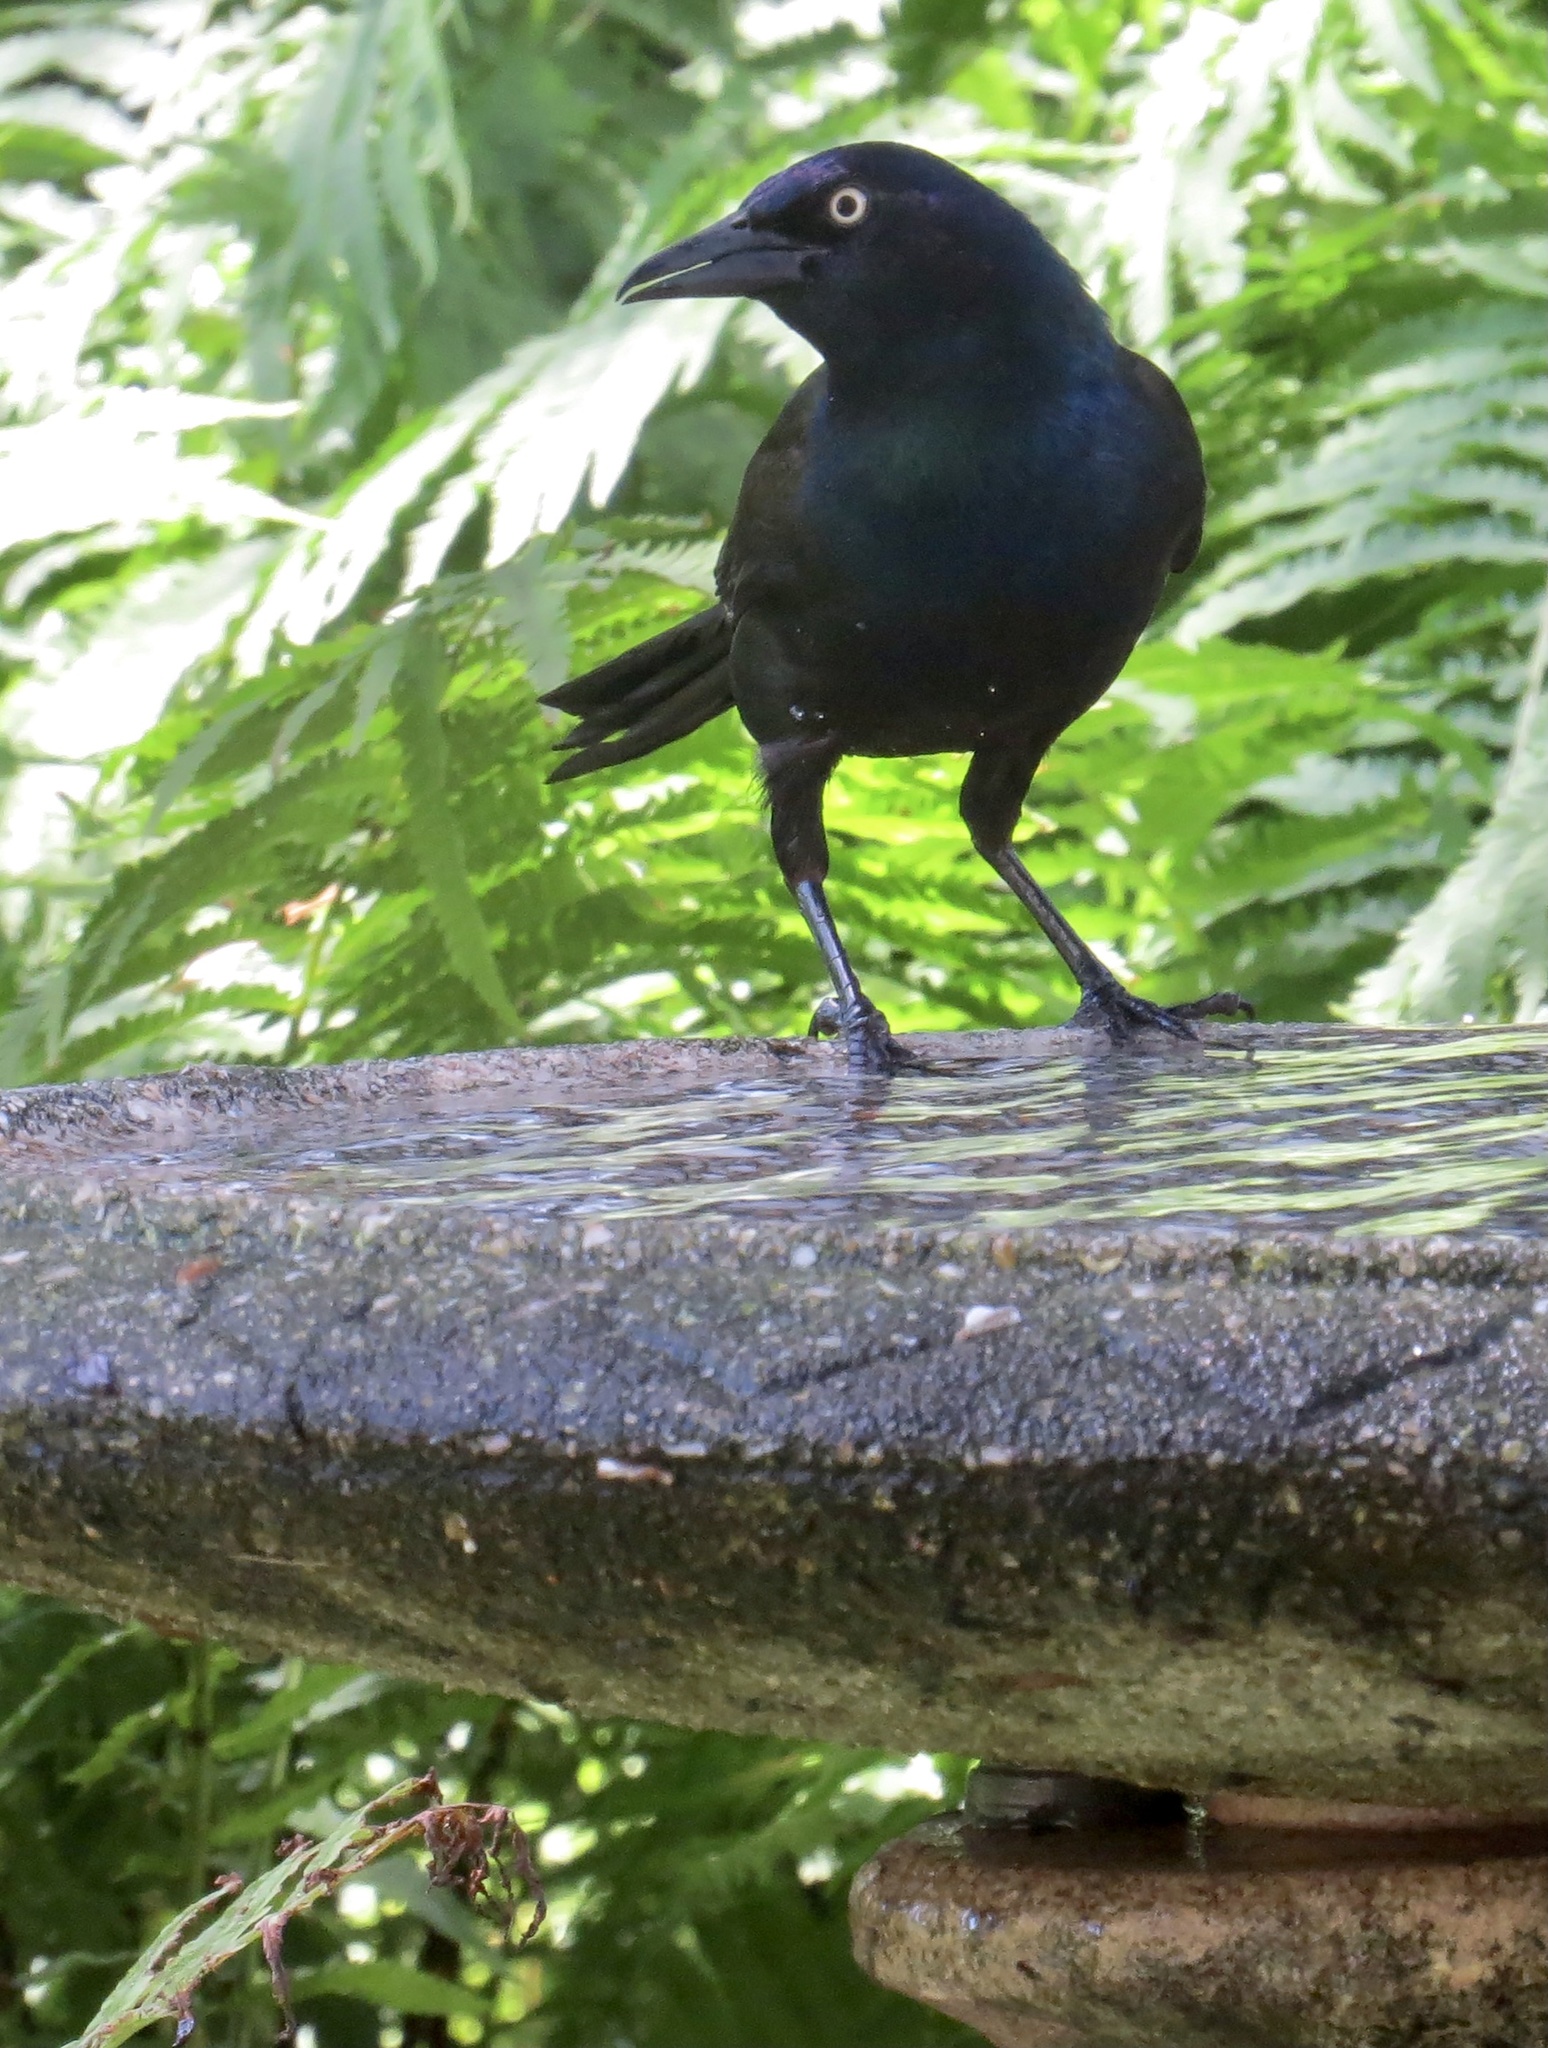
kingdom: Animalia
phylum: Chordata
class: Aves
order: Passeriformes
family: Icteridae
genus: Quiscalus
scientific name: Quiscalus quiscula
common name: Common grackle
